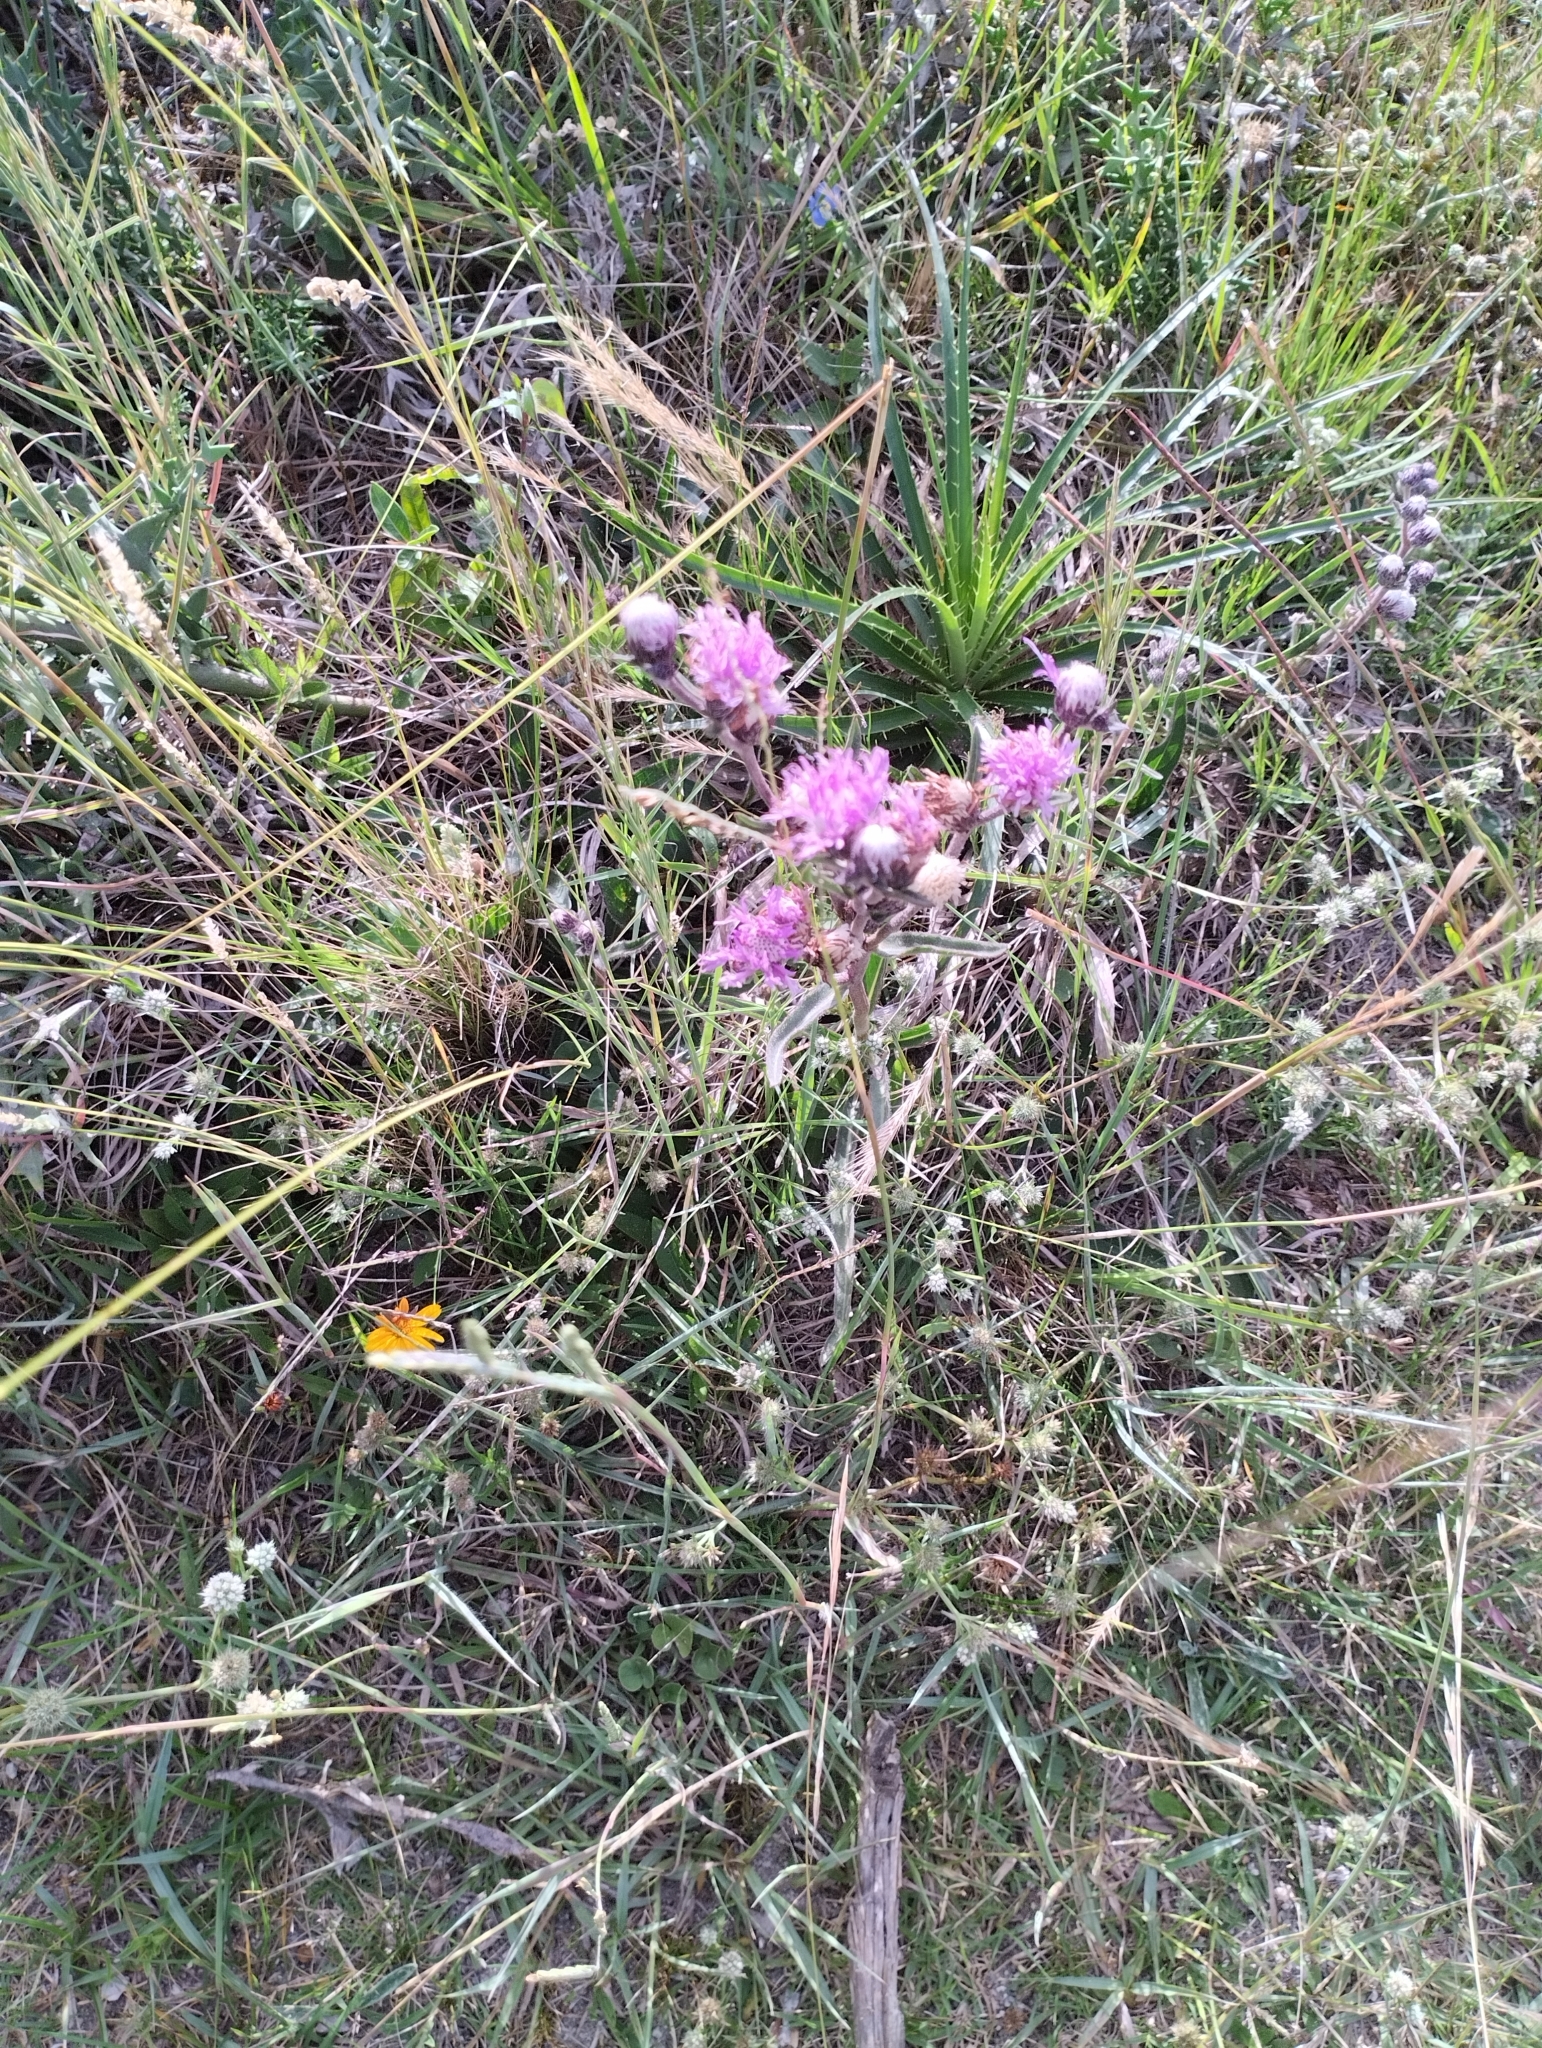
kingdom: Plantae
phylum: Tracheophyta
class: Magnoliopsida
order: Asterales
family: Asteraceae
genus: Chrysolaena
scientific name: Chrysolaena flexuosa
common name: Zig-zag vernonia
